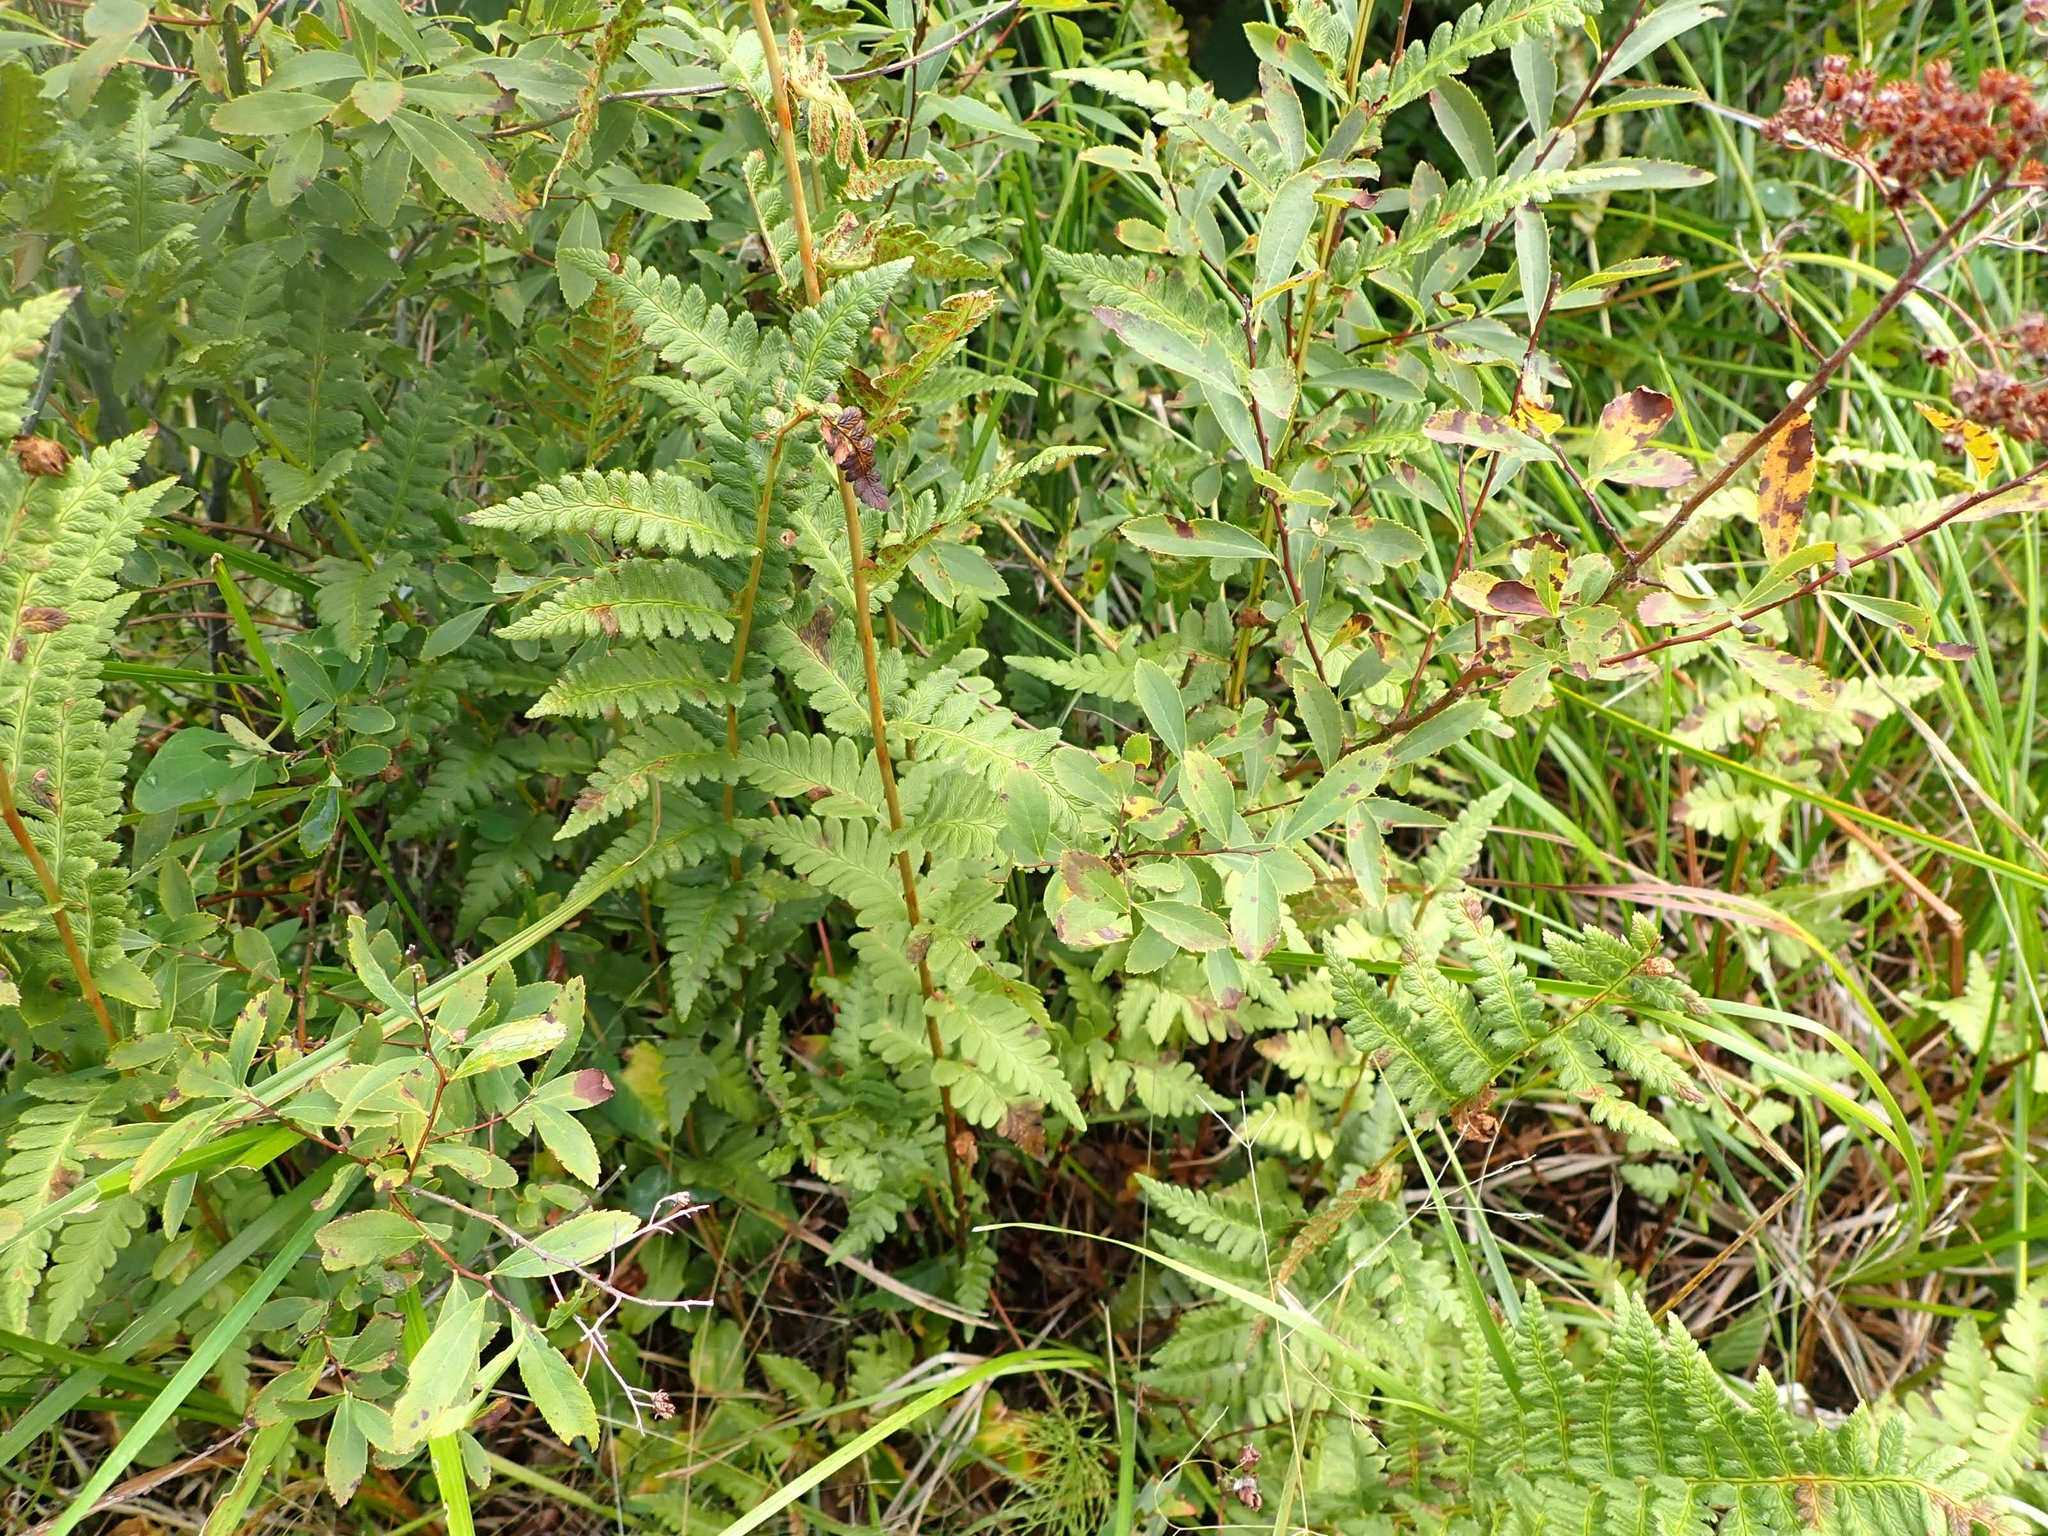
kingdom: Plantae
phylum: Tracheophyta
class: Polypodiopsida
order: Osmundales
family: Osmundaceae
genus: Claytosmunda
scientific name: Claytosmunda claytoniana
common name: Clayton's fern
